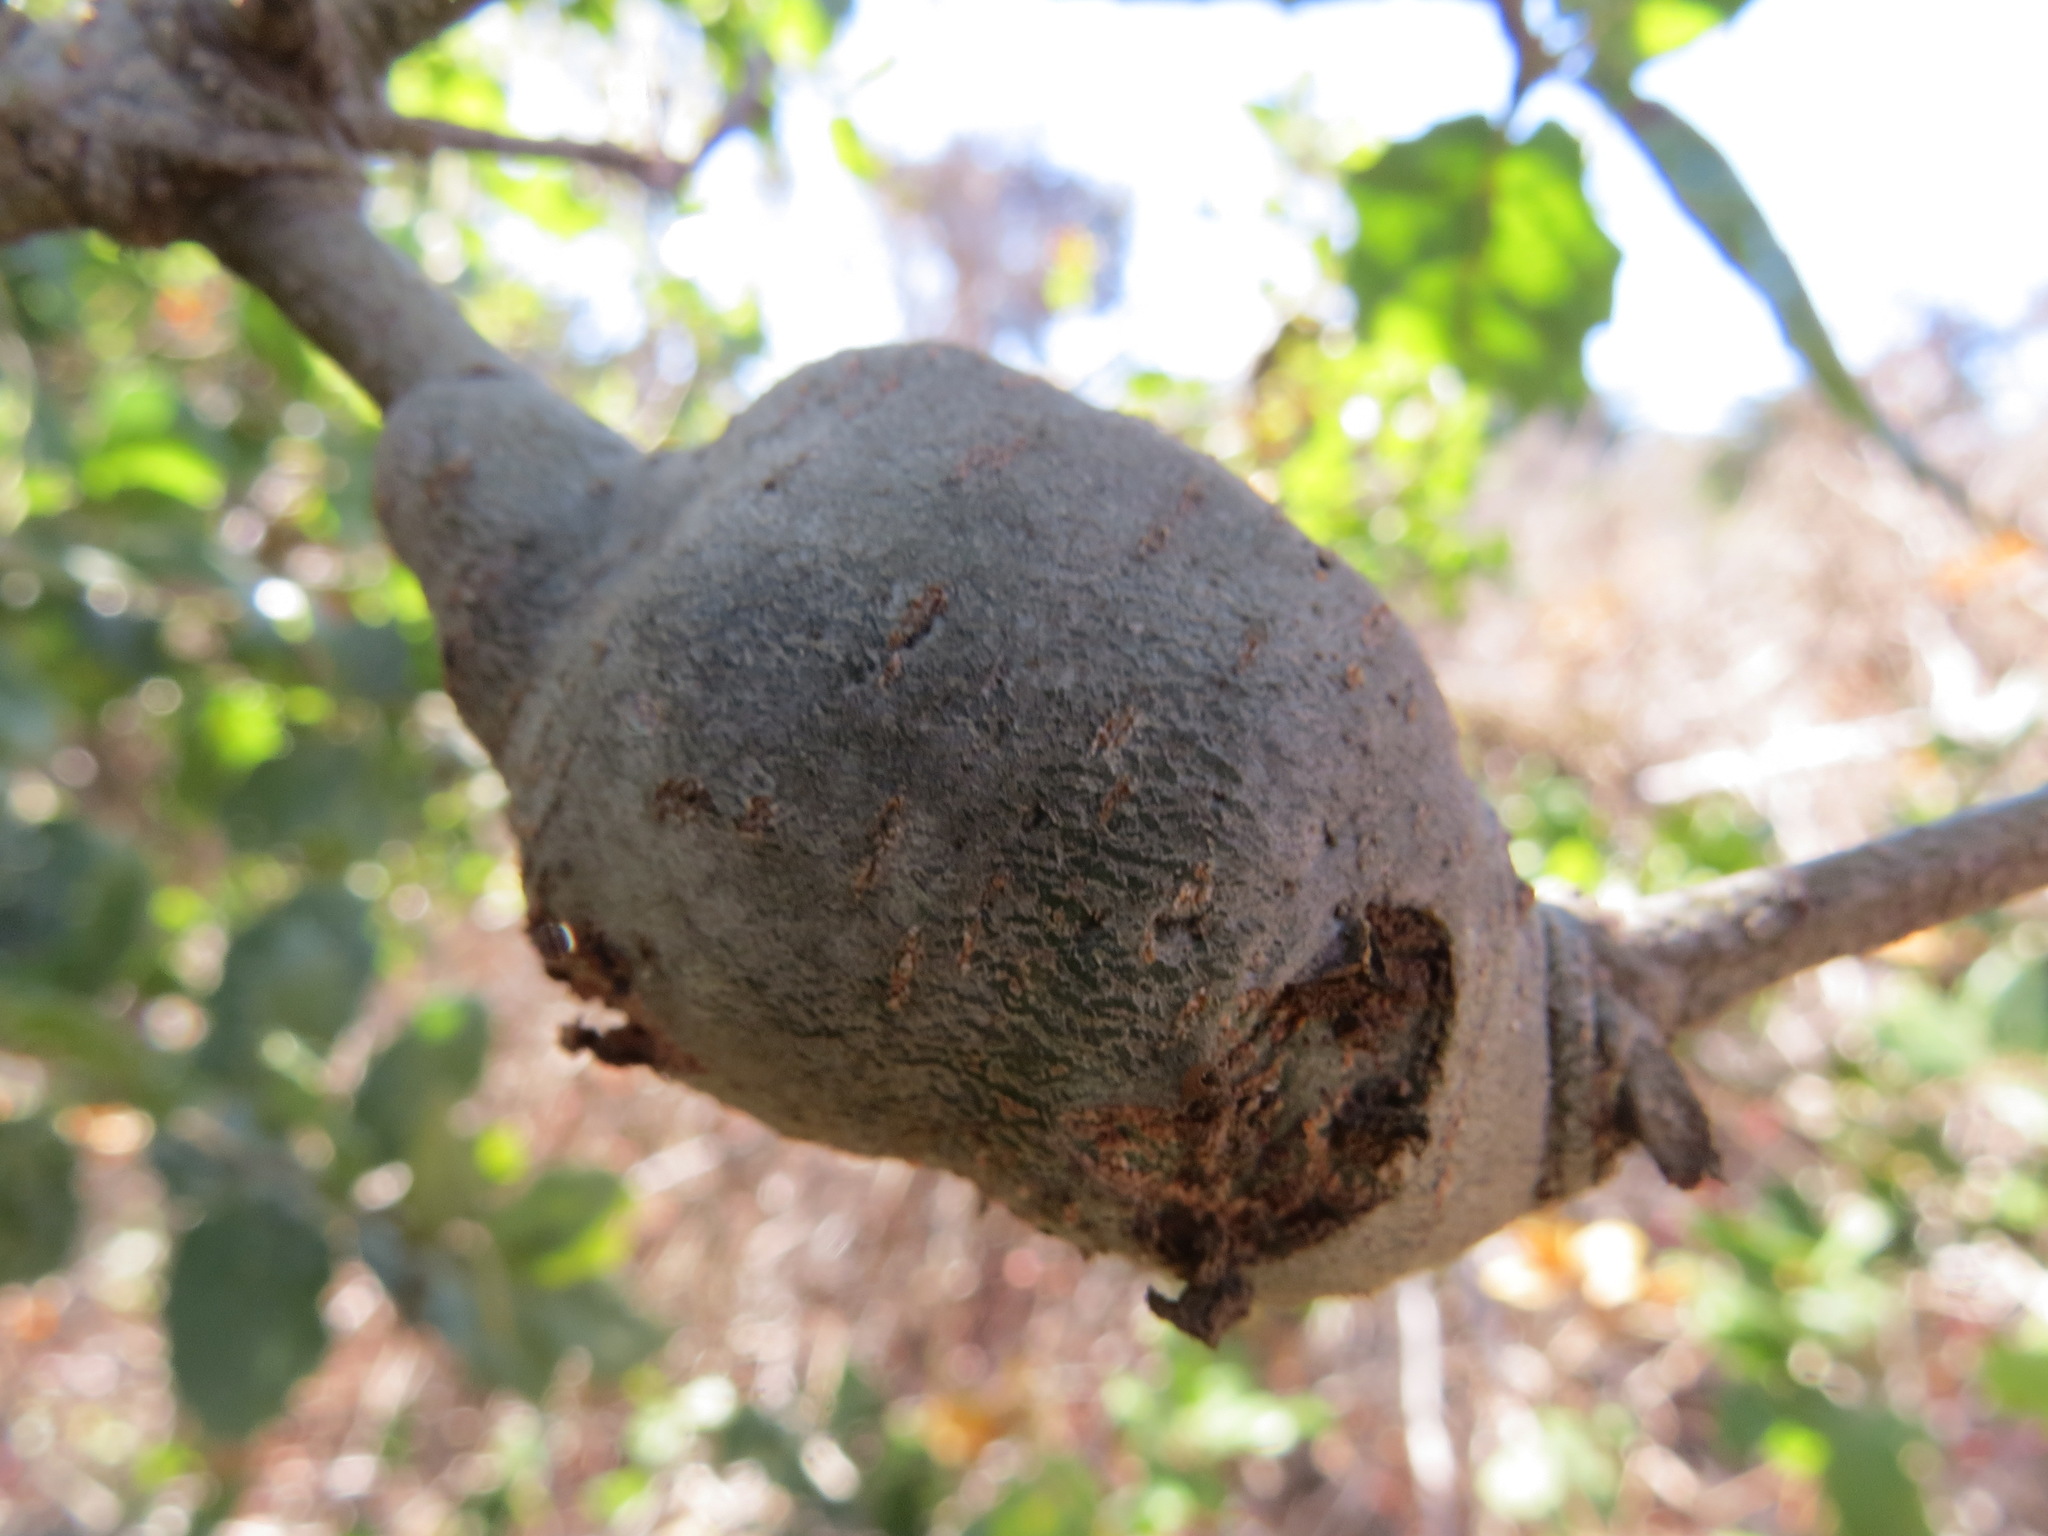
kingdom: Animalia
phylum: Arthropoda
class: Insecta
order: Hymenoptera
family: Cynipidae
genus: Callirhytis
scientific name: Callirhytis
